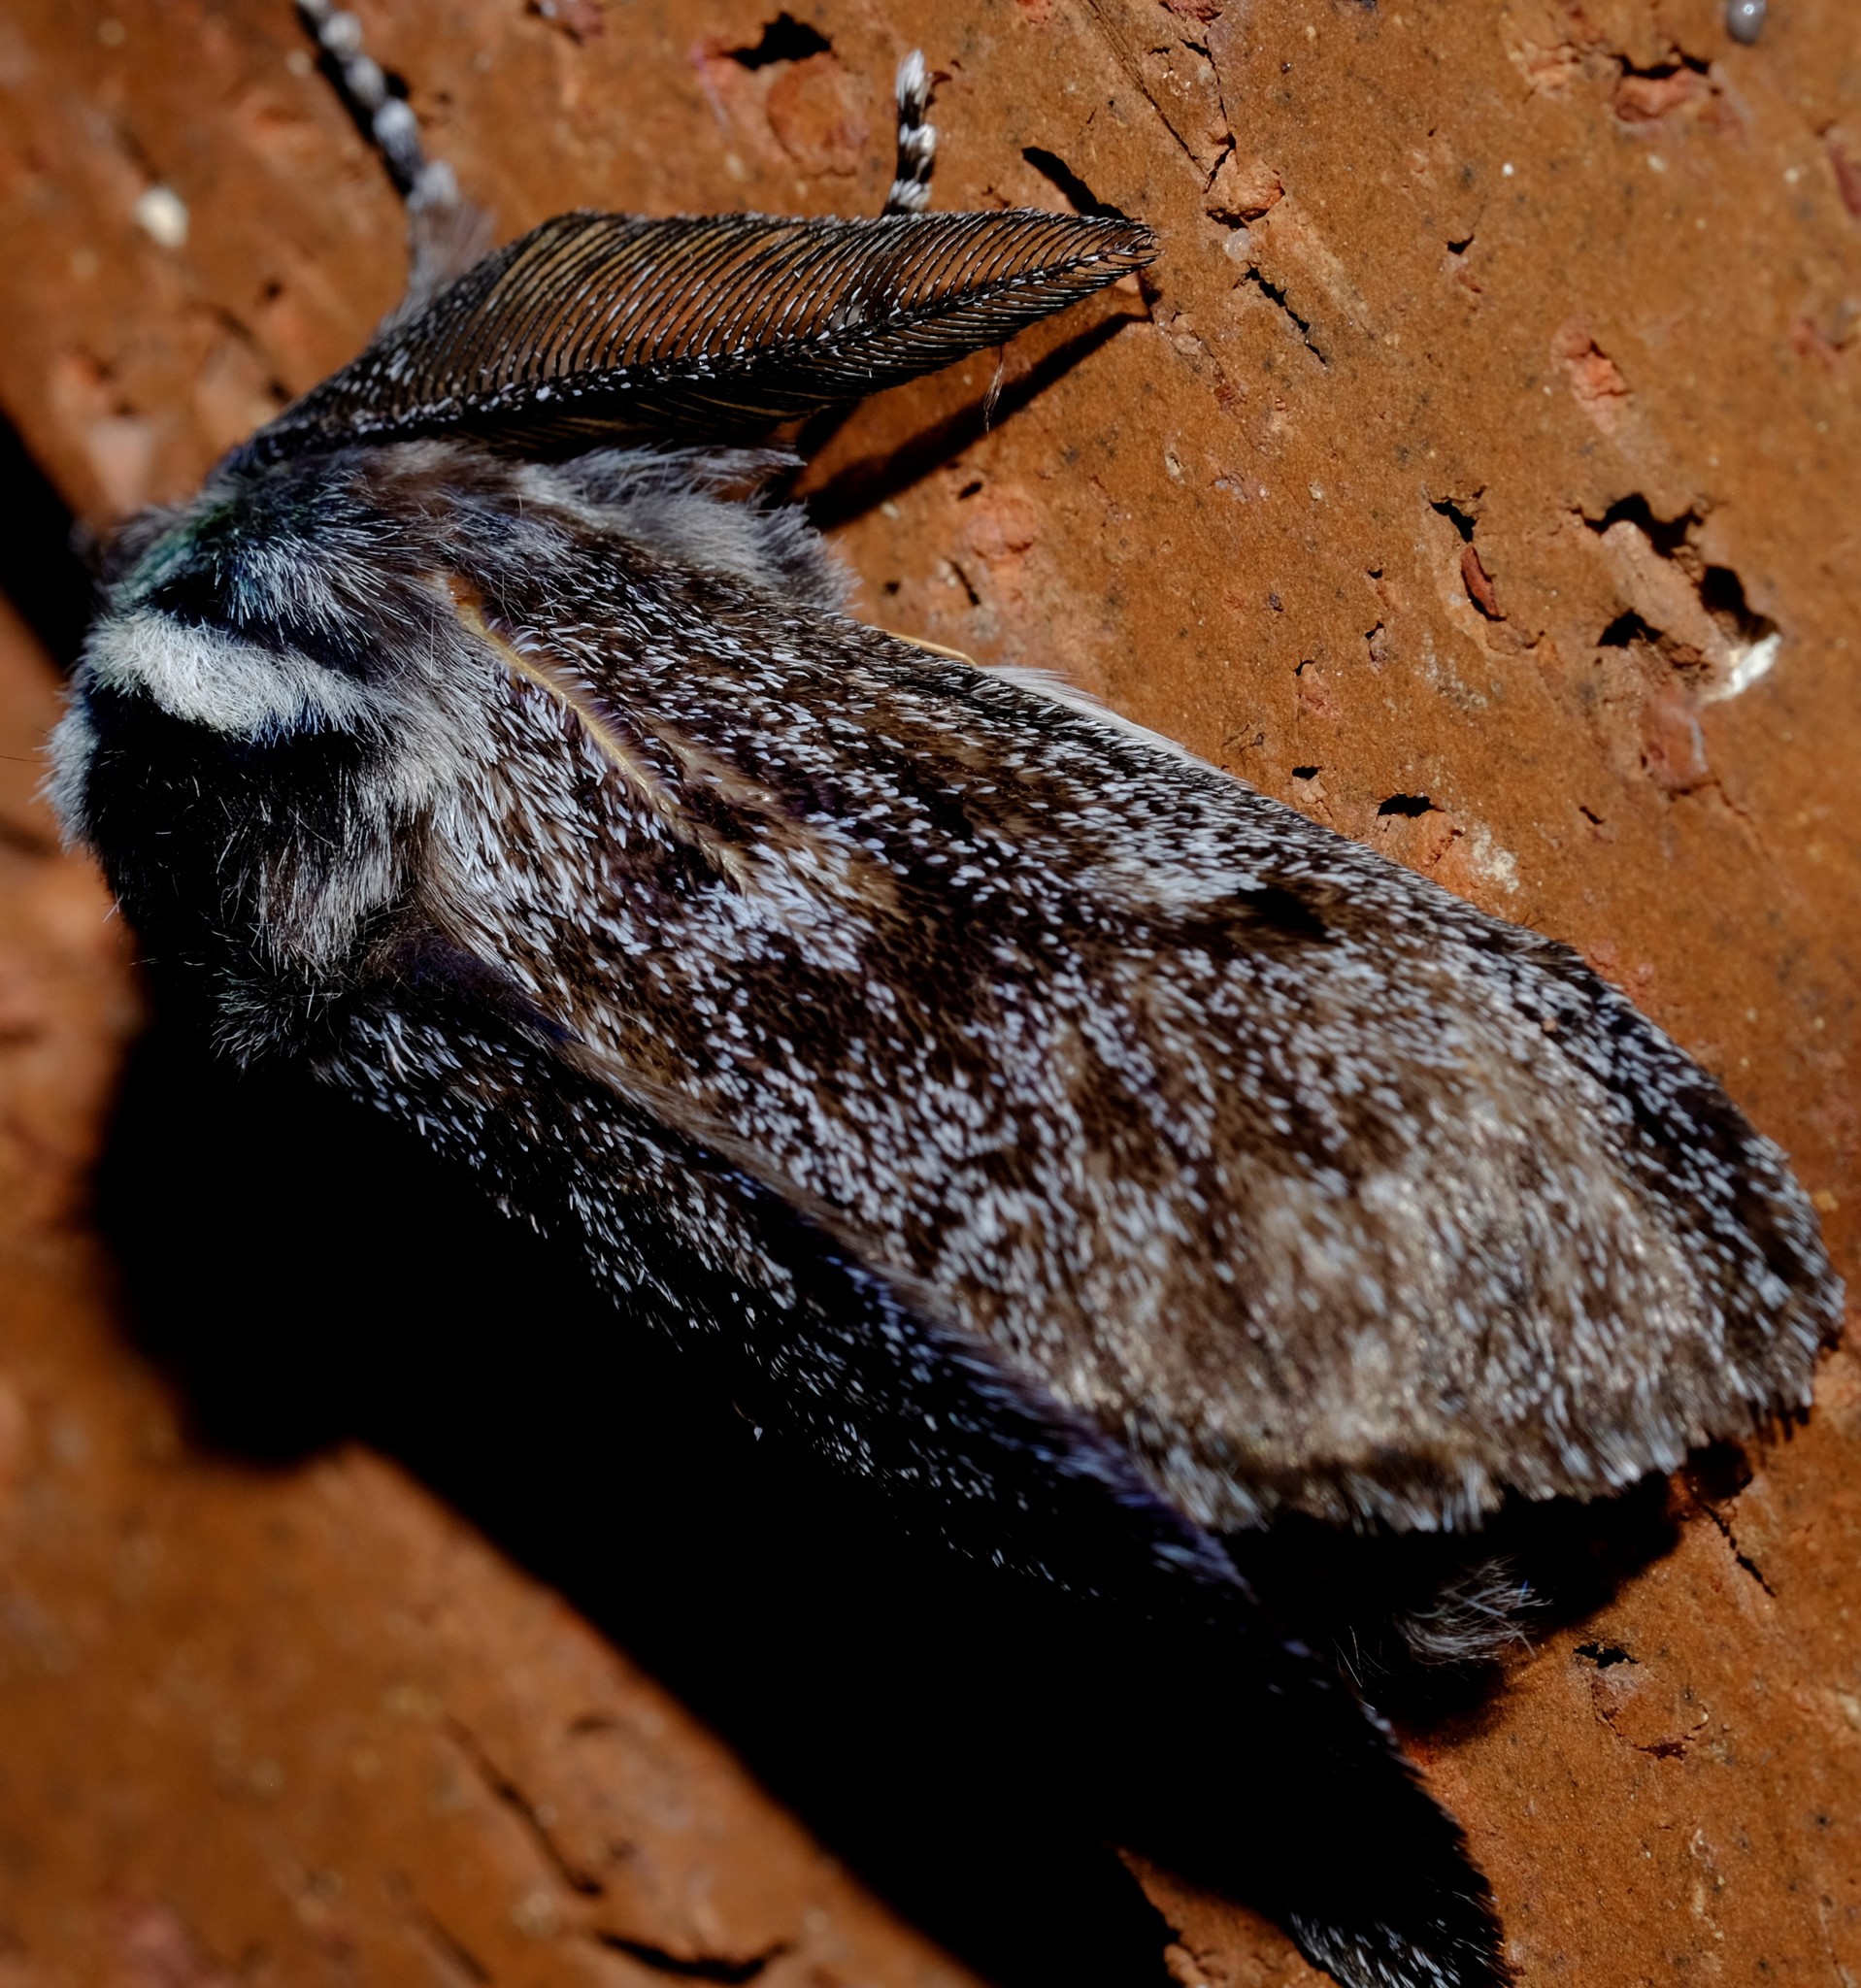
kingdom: Animalia
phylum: Arthropoda
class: Insecta
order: Lepidoptera
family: Cossidae
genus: Ptilomacra
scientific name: Ptilomacra senex
